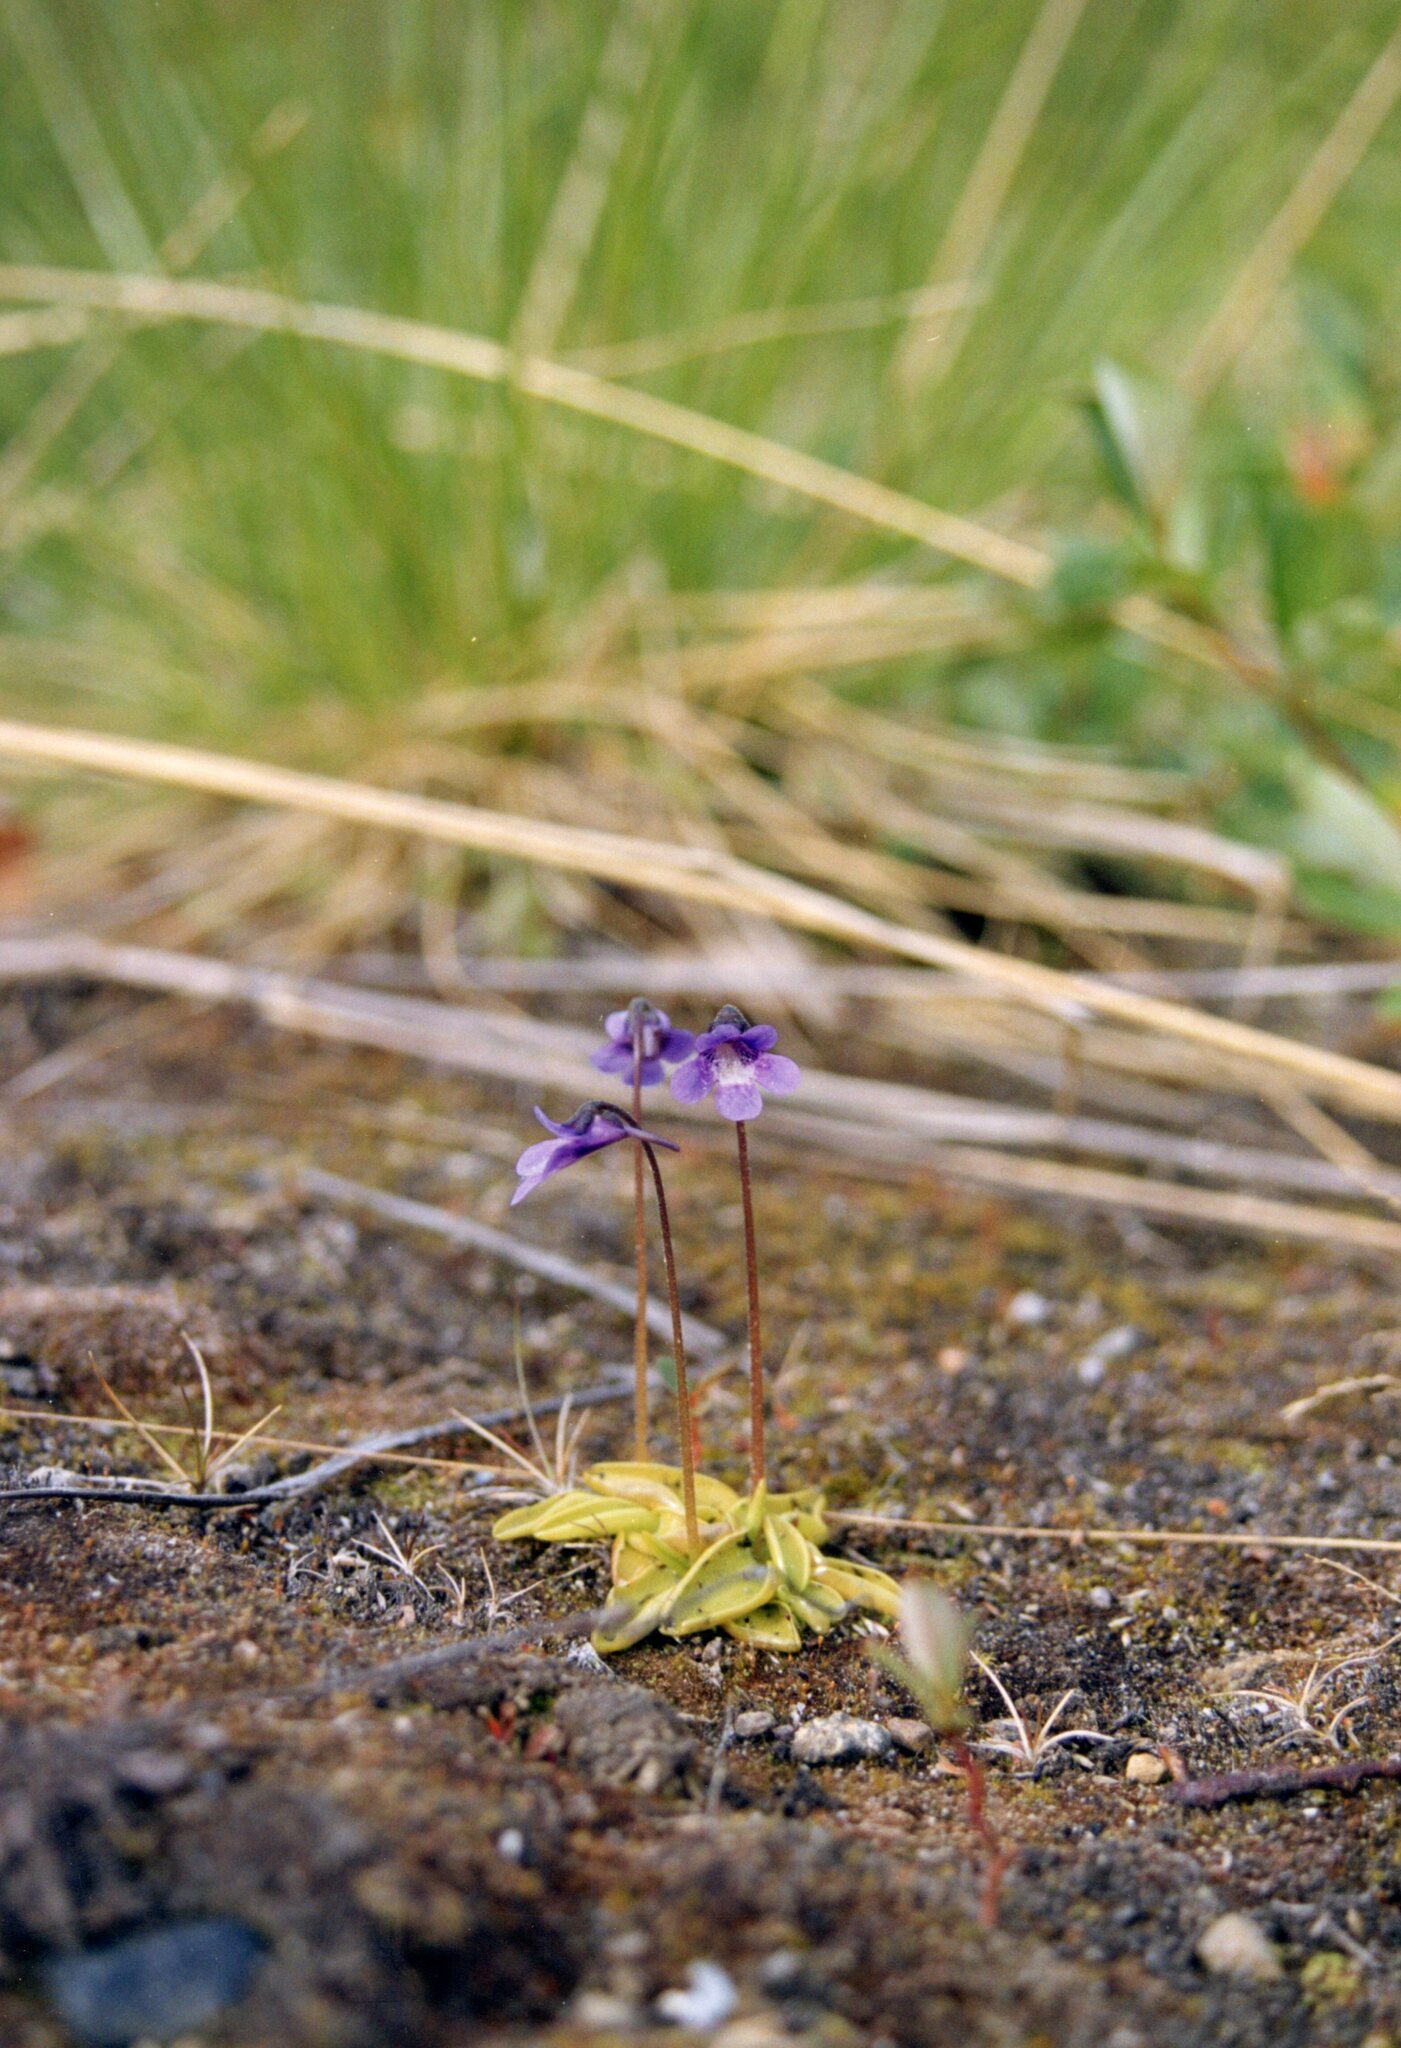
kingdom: Plantae
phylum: Tracheophyta
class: Magnoliopsida
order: Lamiales
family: Lentibulariaceae
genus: Pinguicula
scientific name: Pinguicula vulgaris
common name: Common butterwort
